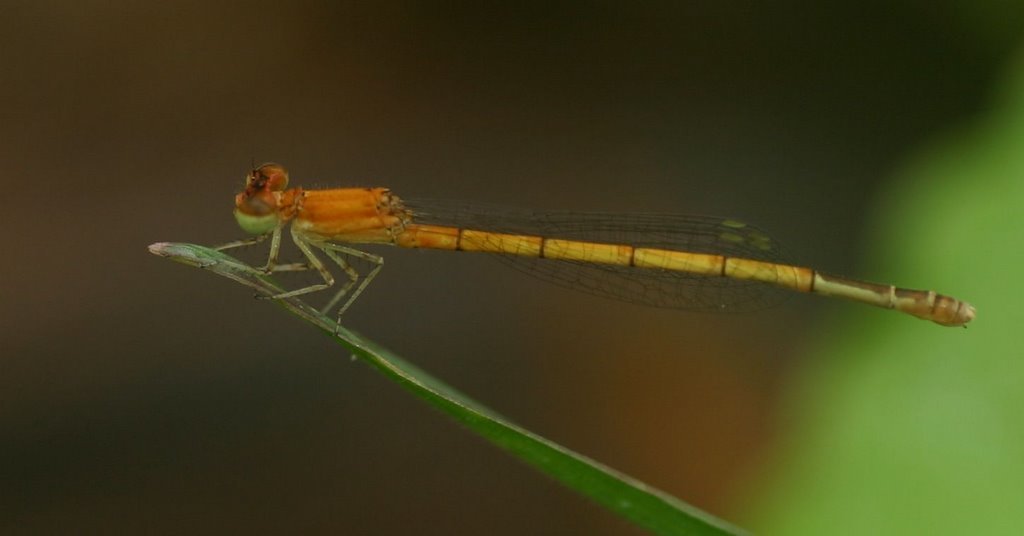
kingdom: Animalia
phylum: Arthropoda
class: Insecta
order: Odonata
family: Coenagrionidae
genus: Agriocnemis
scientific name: Agriocnemis pieris
